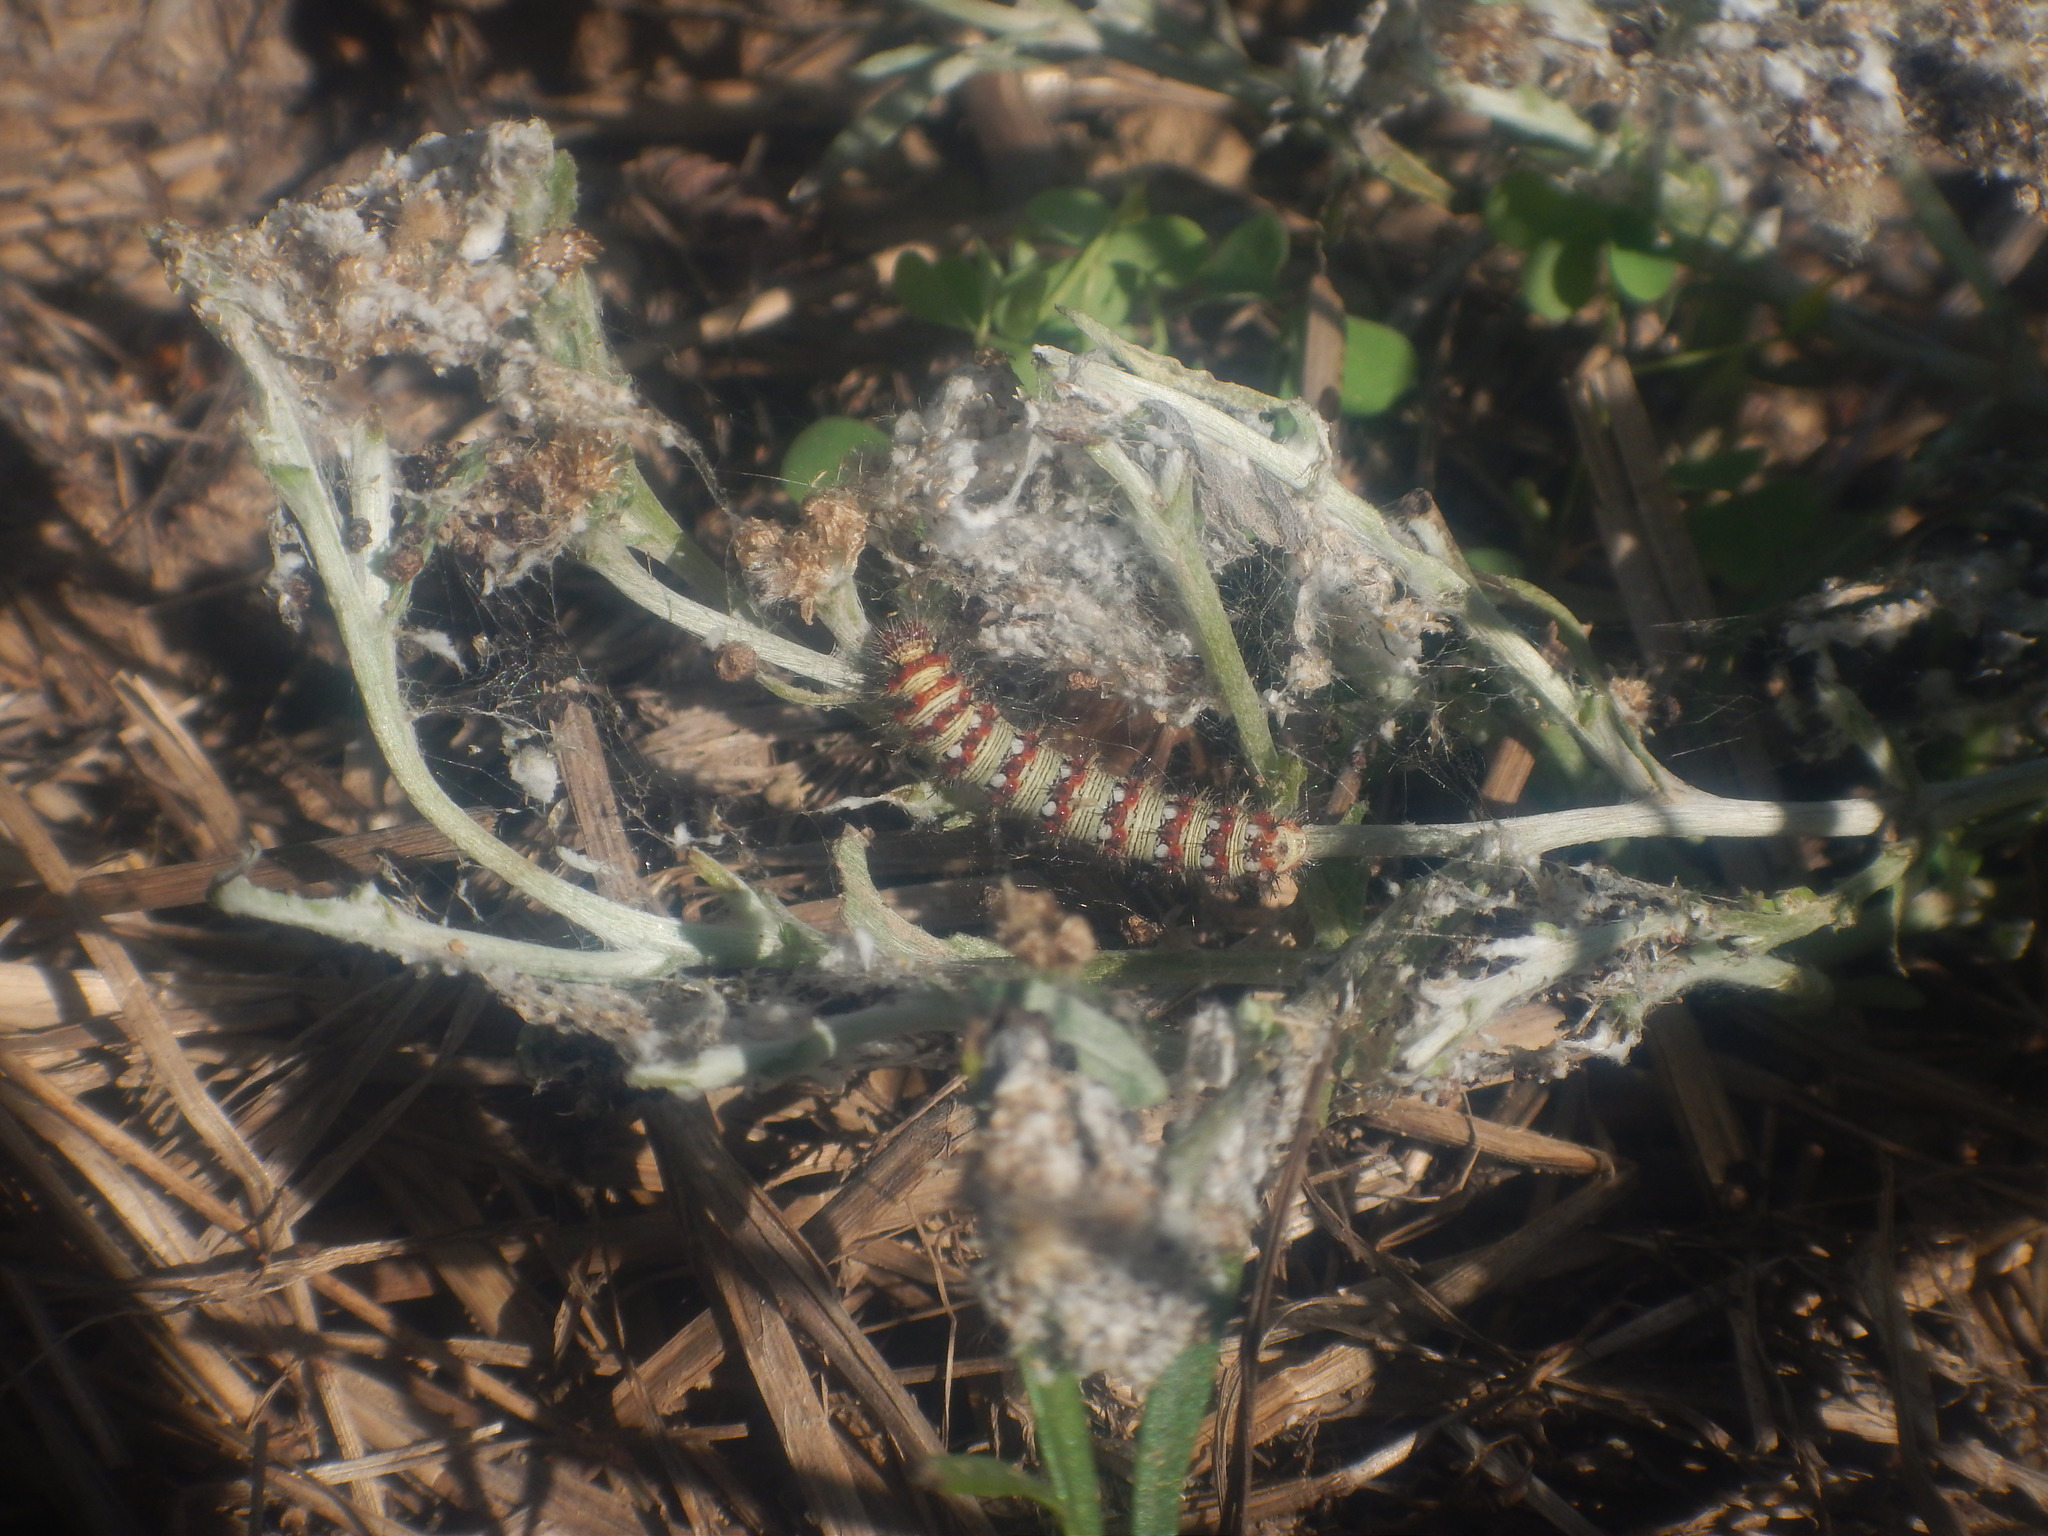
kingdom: Animalia
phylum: Arthropoda
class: Insecta
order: Lepidoptera
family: Nymphalidae
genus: Vanessa
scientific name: Vanessa virginiensis
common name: American lady
